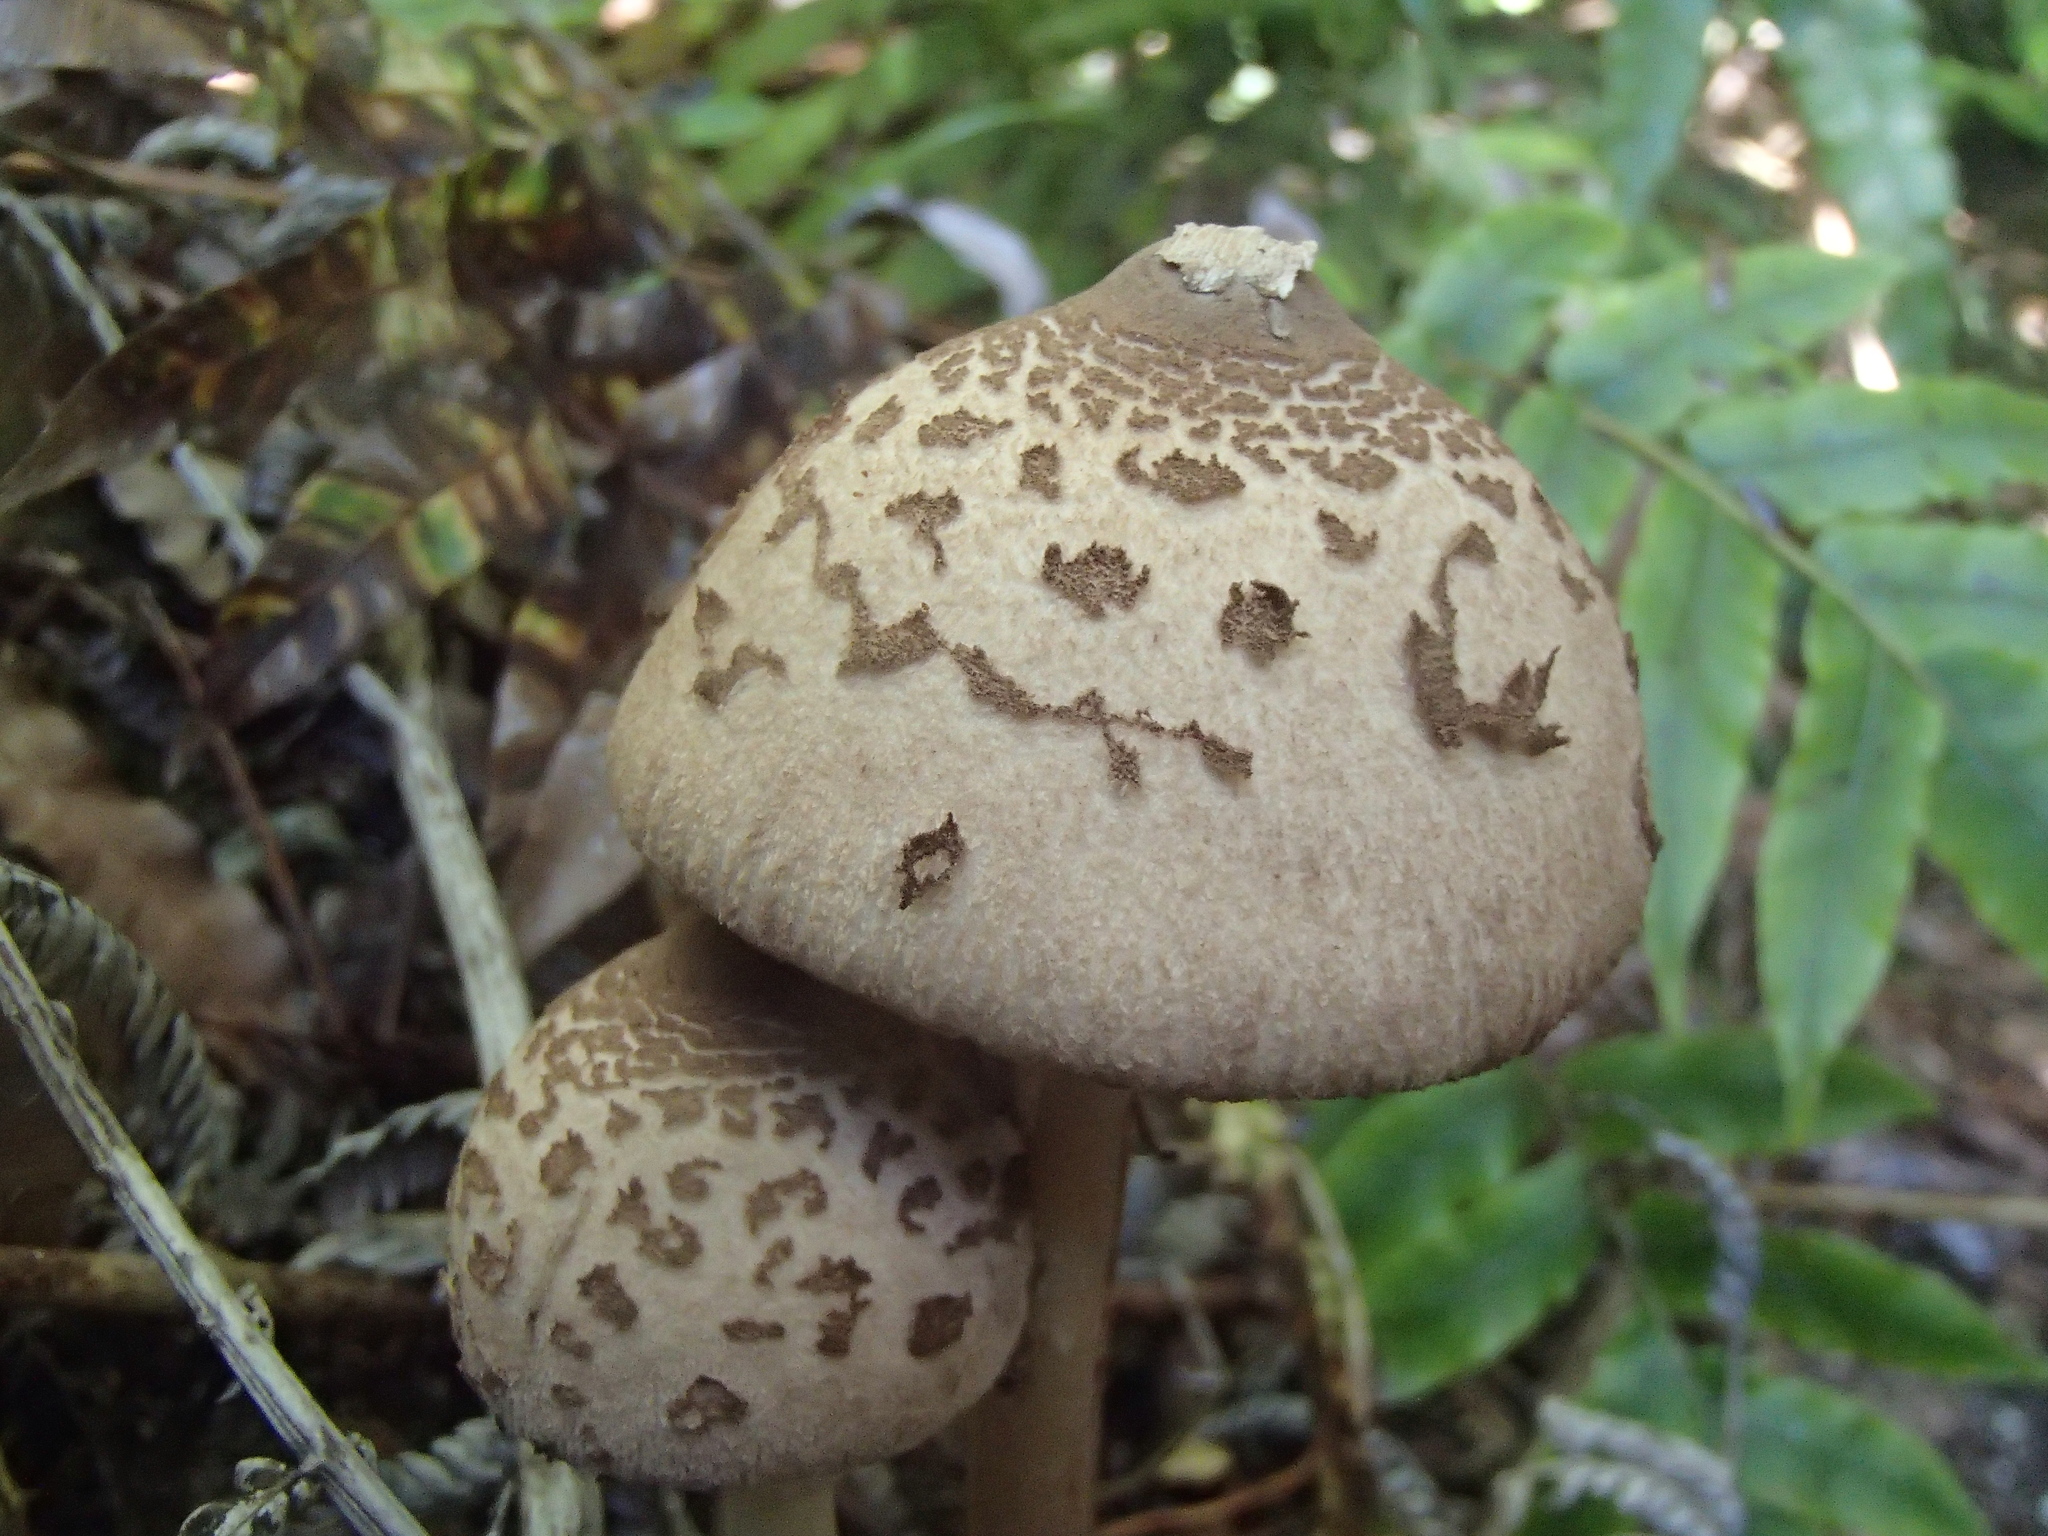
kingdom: Fungi
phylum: Basidiomycota
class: Agaricomycetes
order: Agaricales
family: Agaricaceae
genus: Macrolepiota
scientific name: Macrolepiota clelandii
